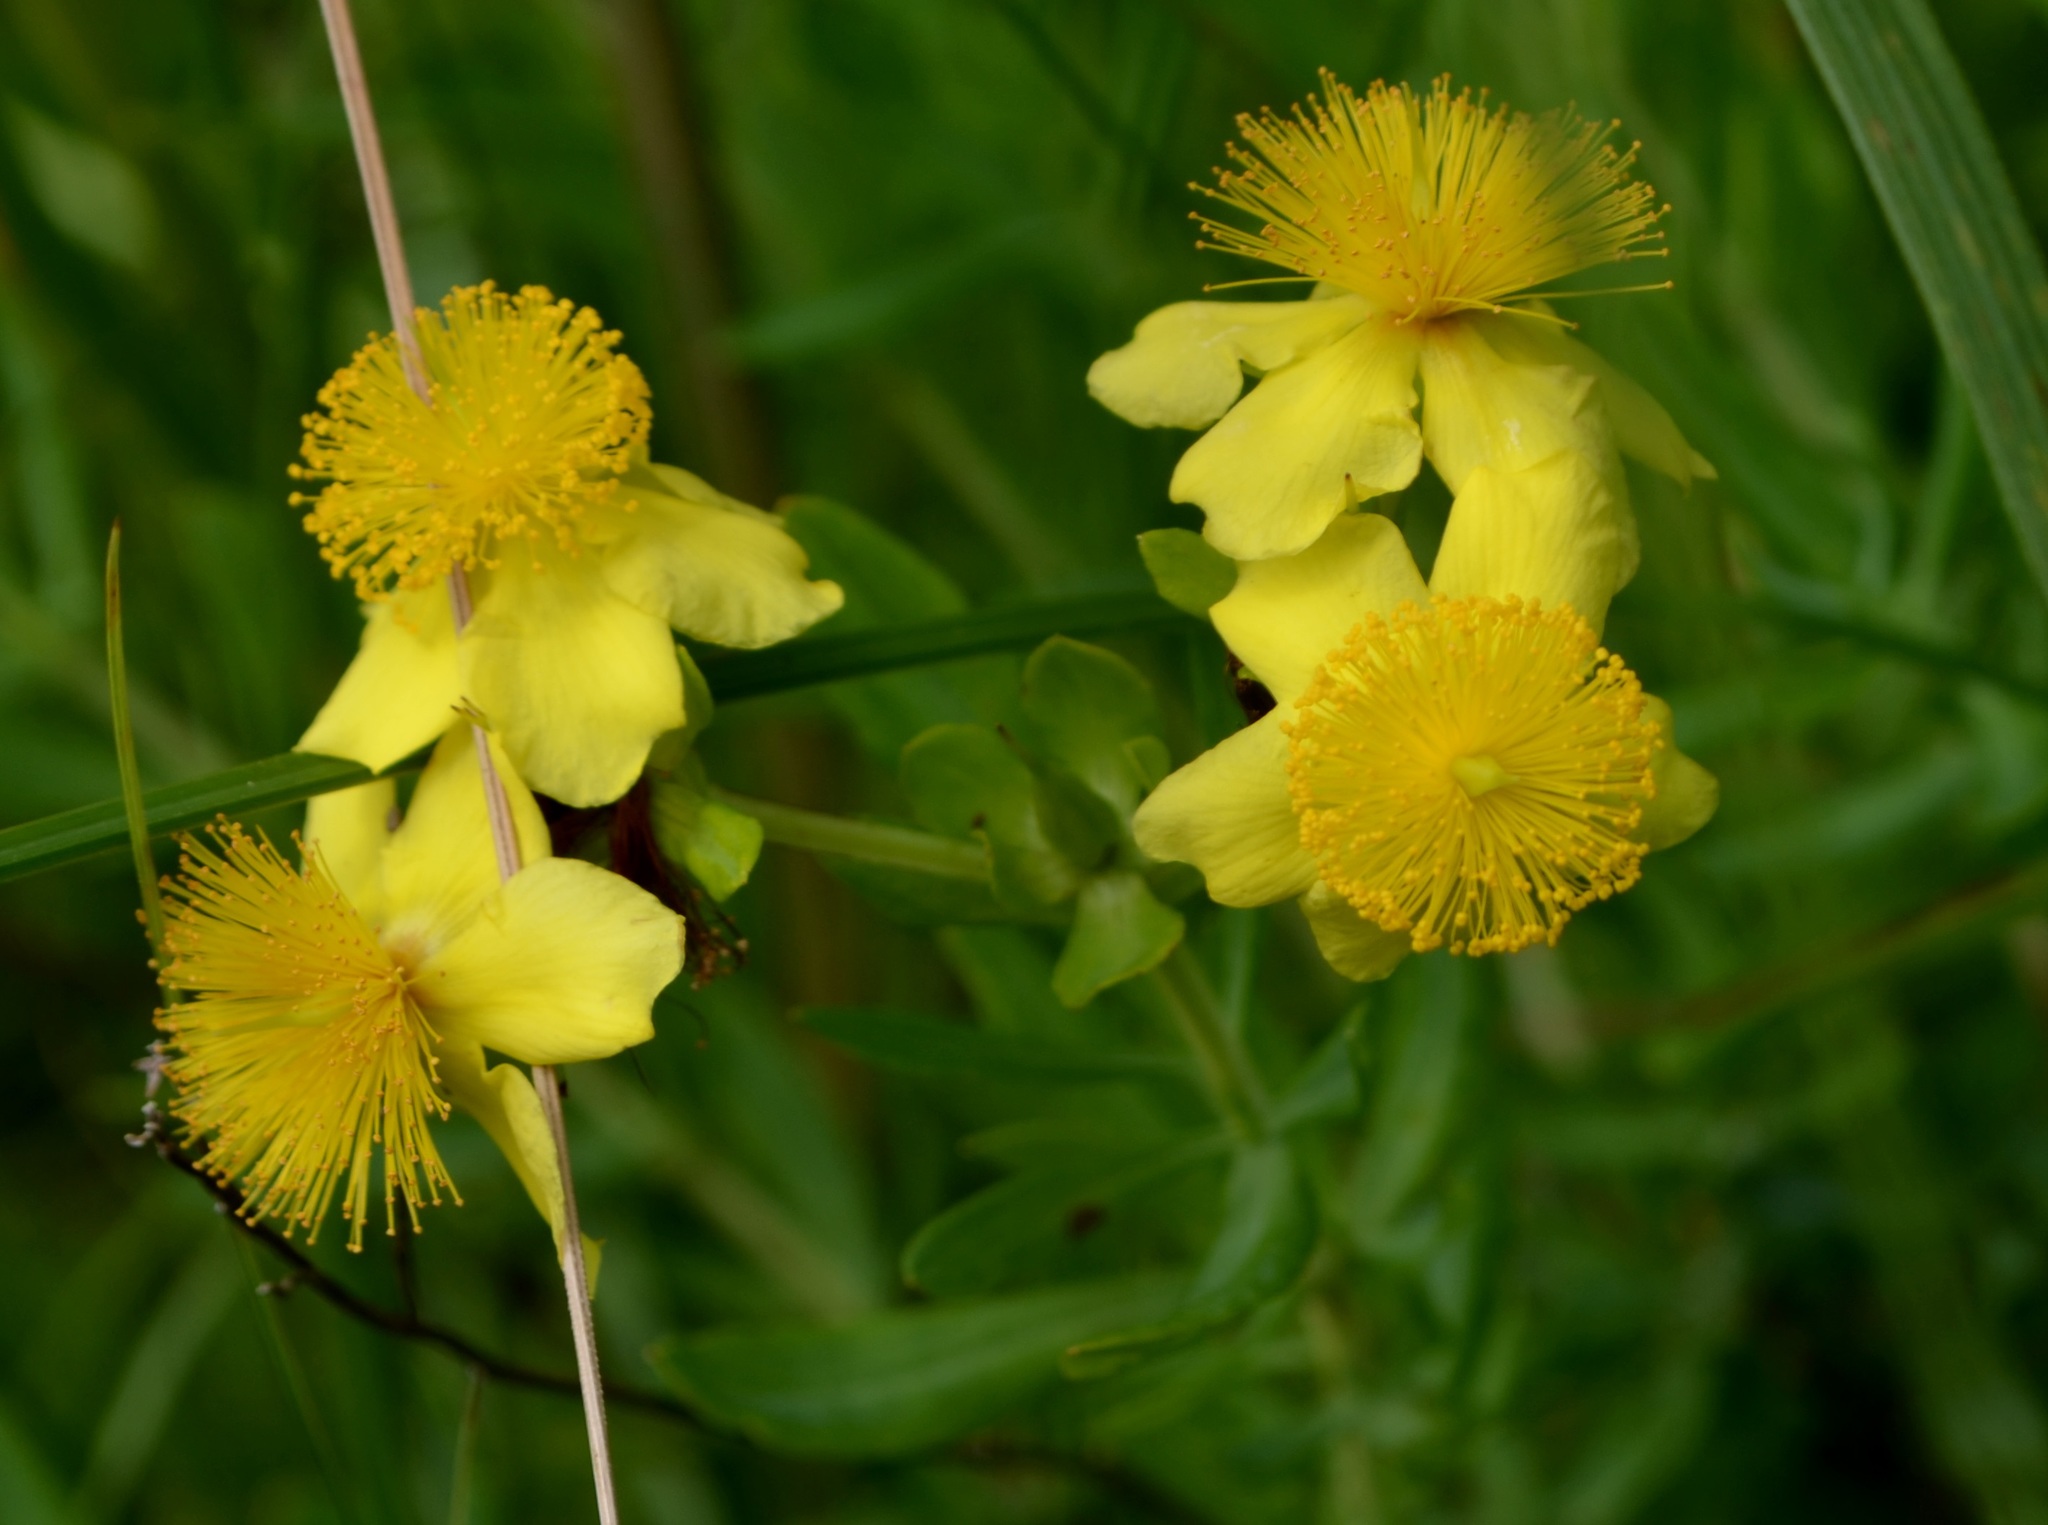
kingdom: Plantae
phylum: Tracheophyta
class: Magnoliopsida
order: Malpighiales
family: Hypericaceae
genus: Hypericum
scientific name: Hypericum kalmianum
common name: Kalm's st. john's-wort
